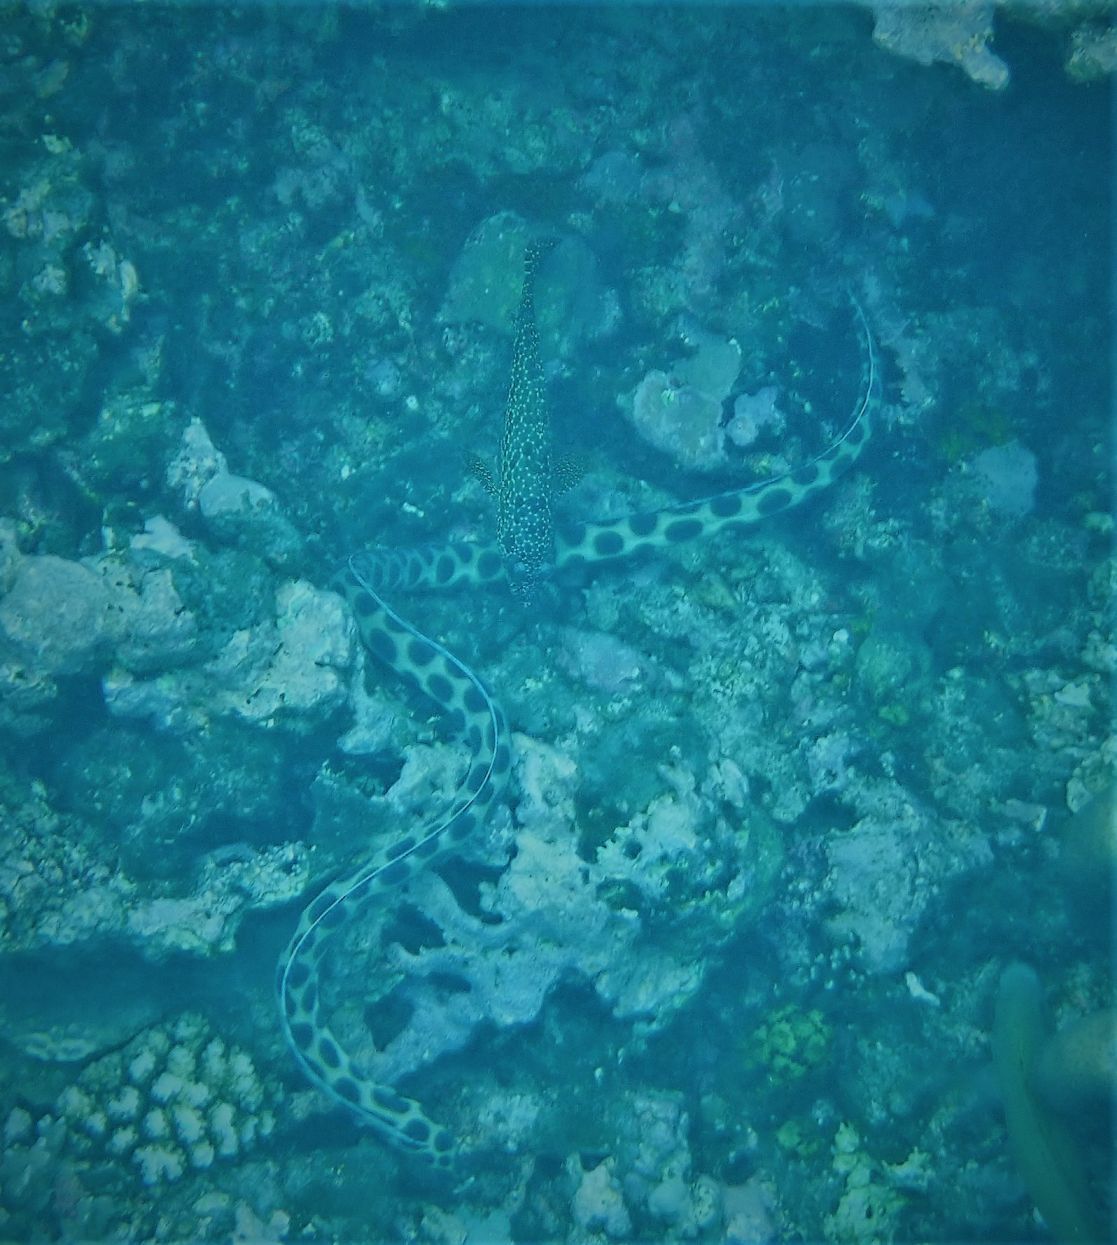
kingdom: Animalia
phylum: Chordata
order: Anguilliformes
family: Ophichthidae
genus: Myrichthys
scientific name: Myrichthys maculosus
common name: Spotted snake eel
